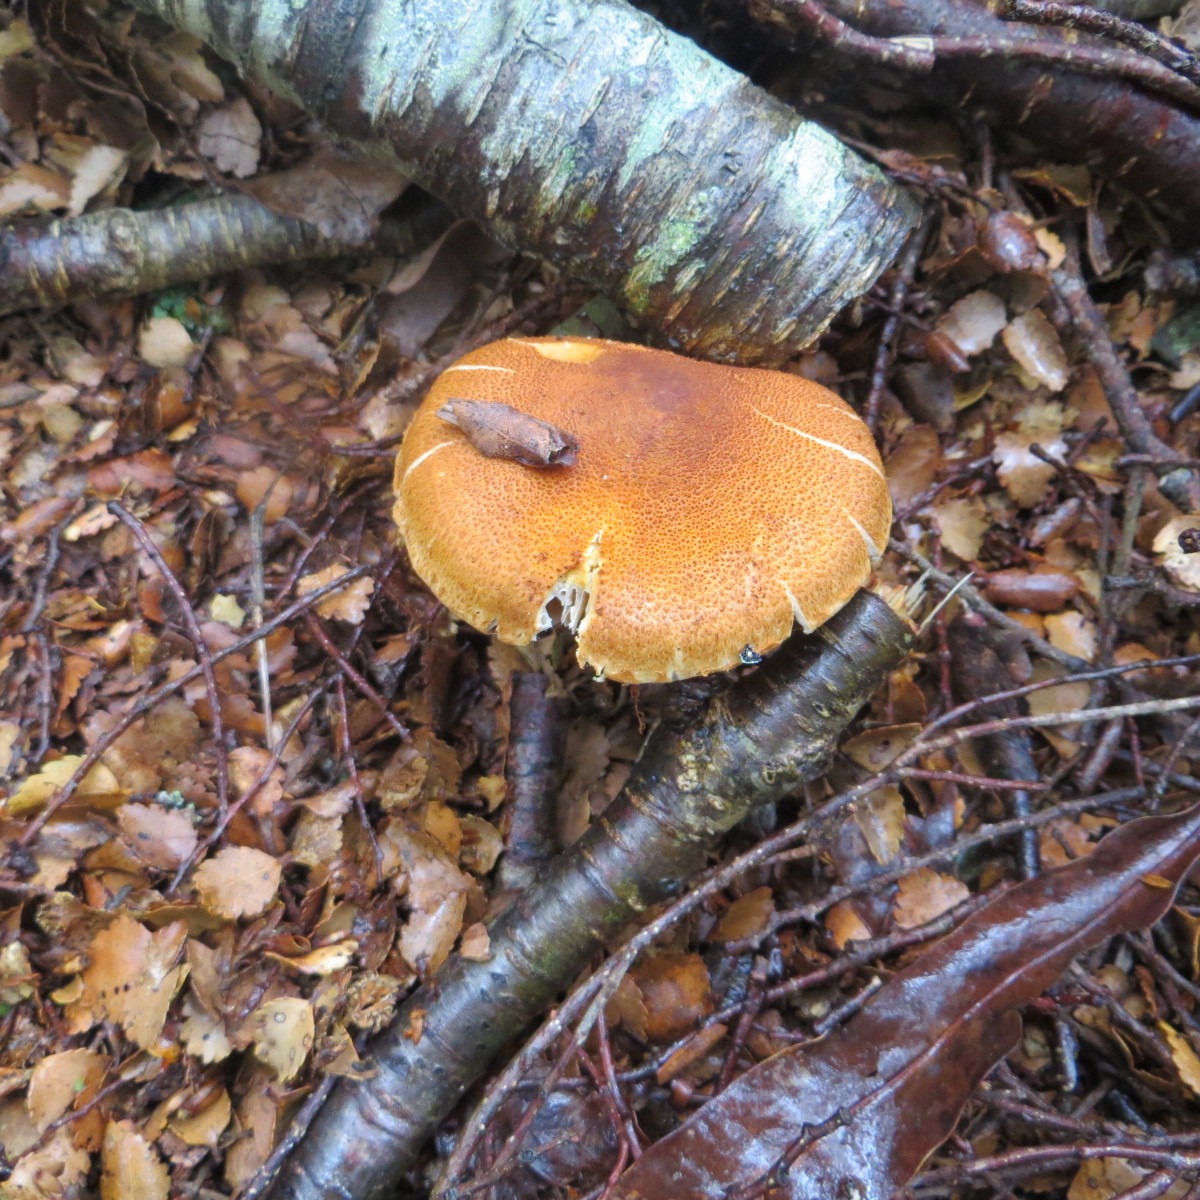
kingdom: Fungi
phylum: Basidiomycota
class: Agaricomycetes
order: Agaricales
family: Cortinariaceae
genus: Thaxterogaster
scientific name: Thaxterogaster castoreus
